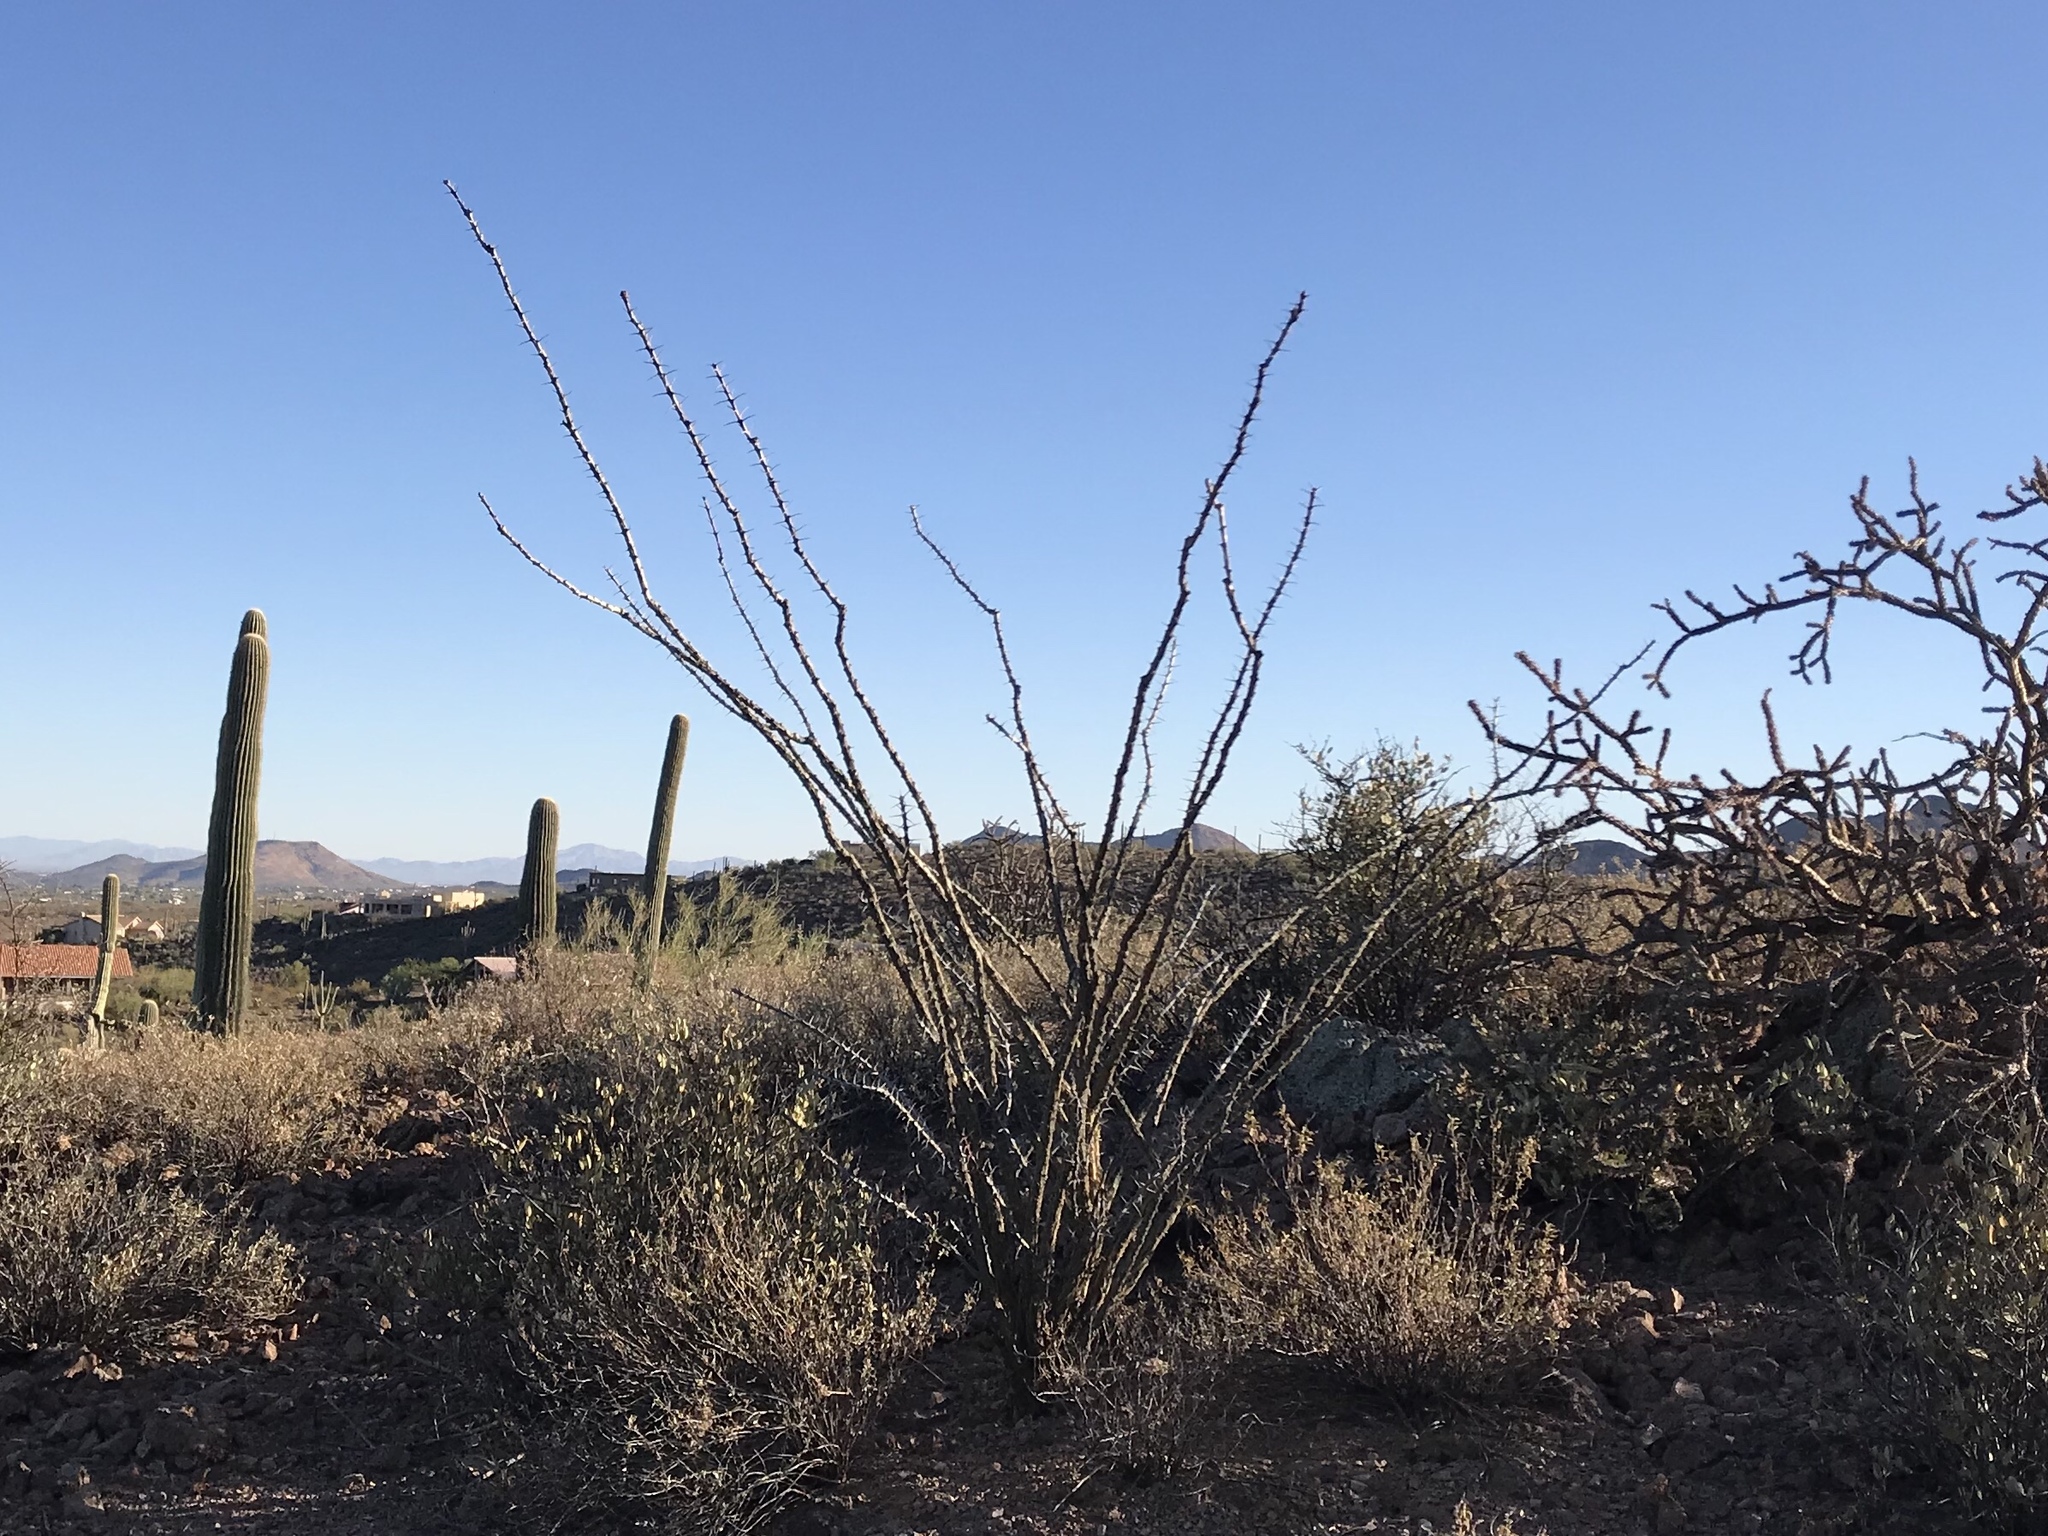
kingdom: Plantae
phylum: Tracheophyta
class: Magnoliopsida
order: Ericales
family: Fouquieriaceae
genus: Fouquieria
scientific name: Fouquieria splendens
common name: Vine-cactus
